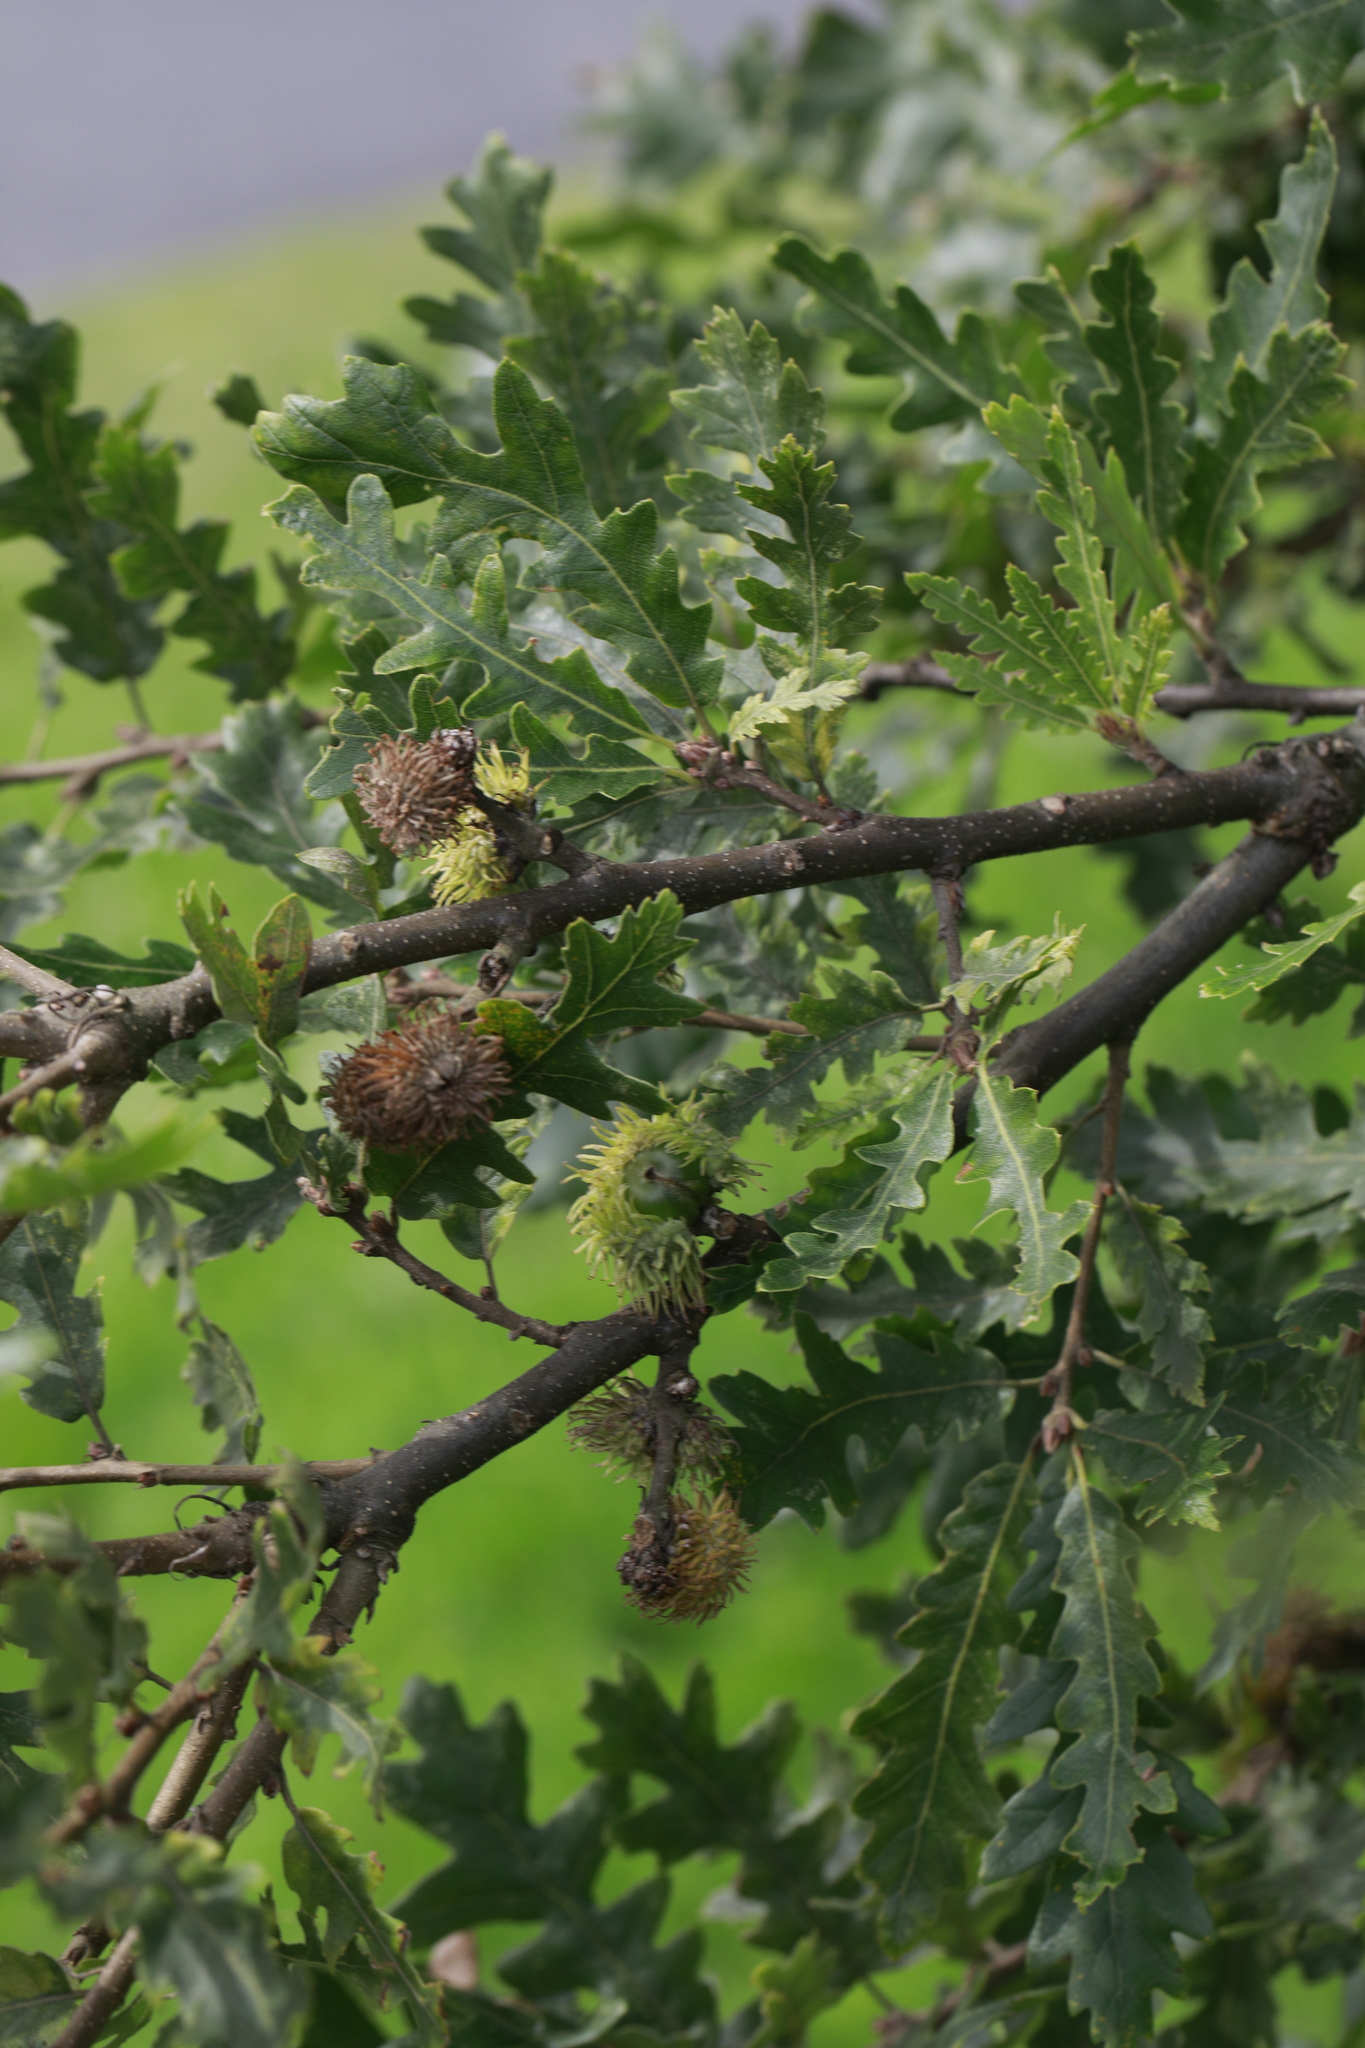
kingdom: Plantae
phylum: Tracheophyta
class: Magnoliopsida
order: Fagales
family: Fagaceae
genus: Quercus
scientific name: Quercus cerris
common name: Turkey oak
